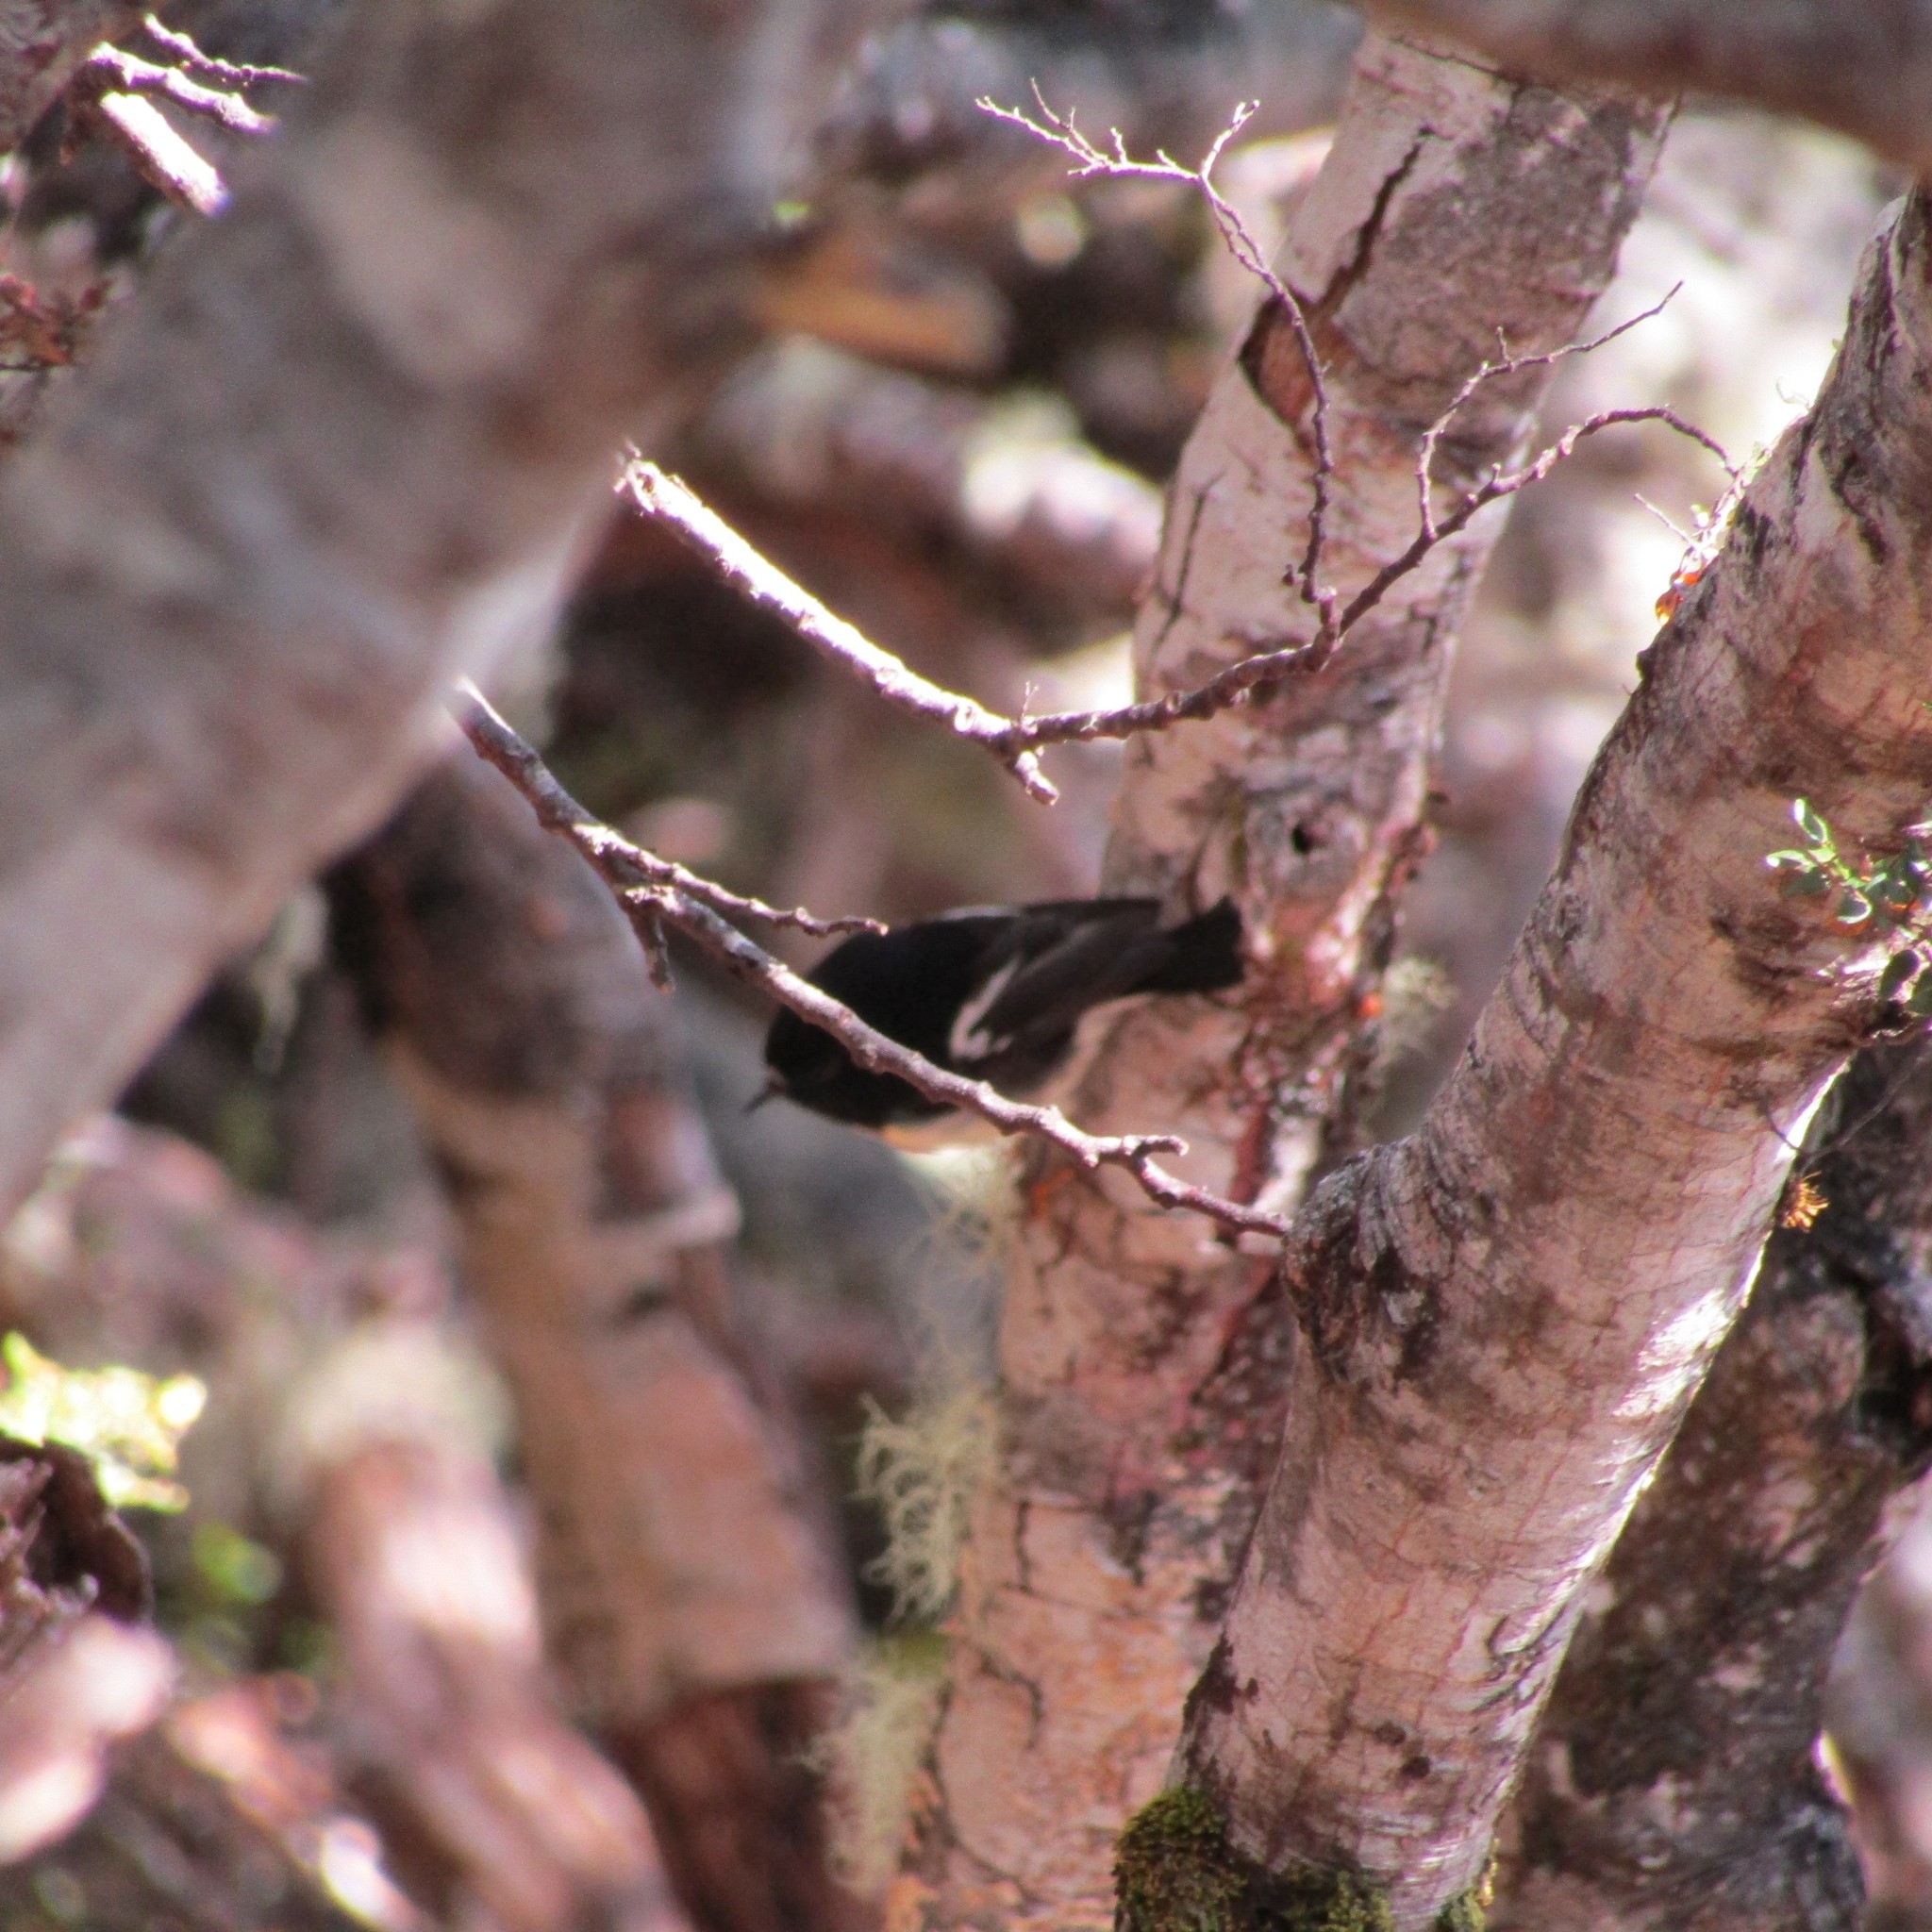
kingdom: Animalia
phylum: Chordata
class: Aves
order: Passeriformes
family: Petroicidae
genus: Petroica
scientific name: Petroica macrocephala
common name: Tomtit
